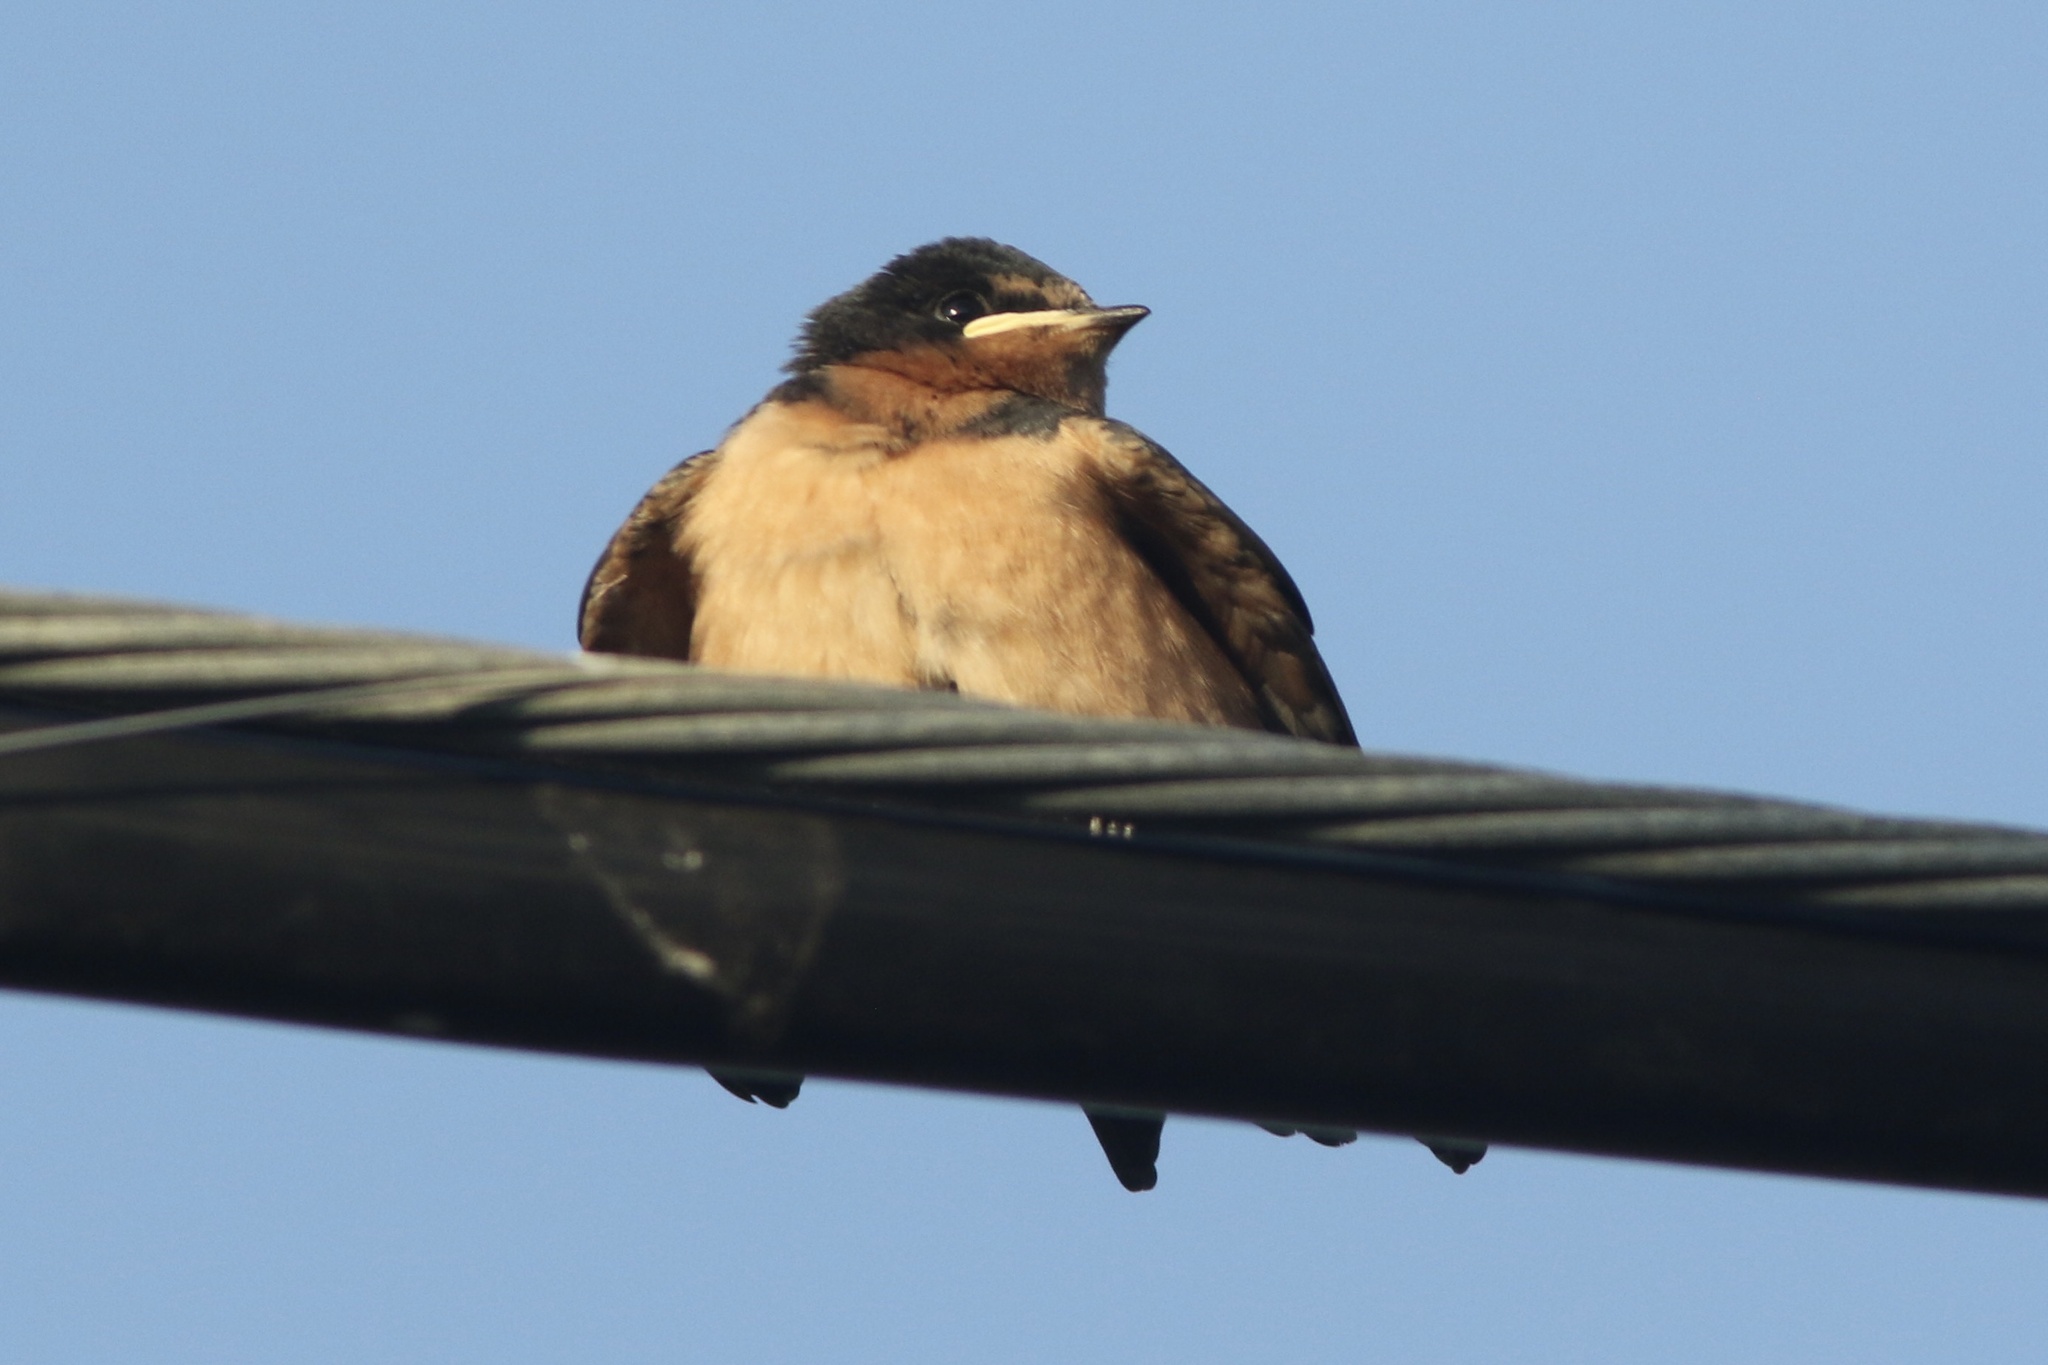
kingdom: Animalia
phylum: Chordata
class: Aves
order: Passeriformes
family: Hirundinidae
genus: Hirundo
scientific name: Hirundo rustica
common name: Barn swallow
